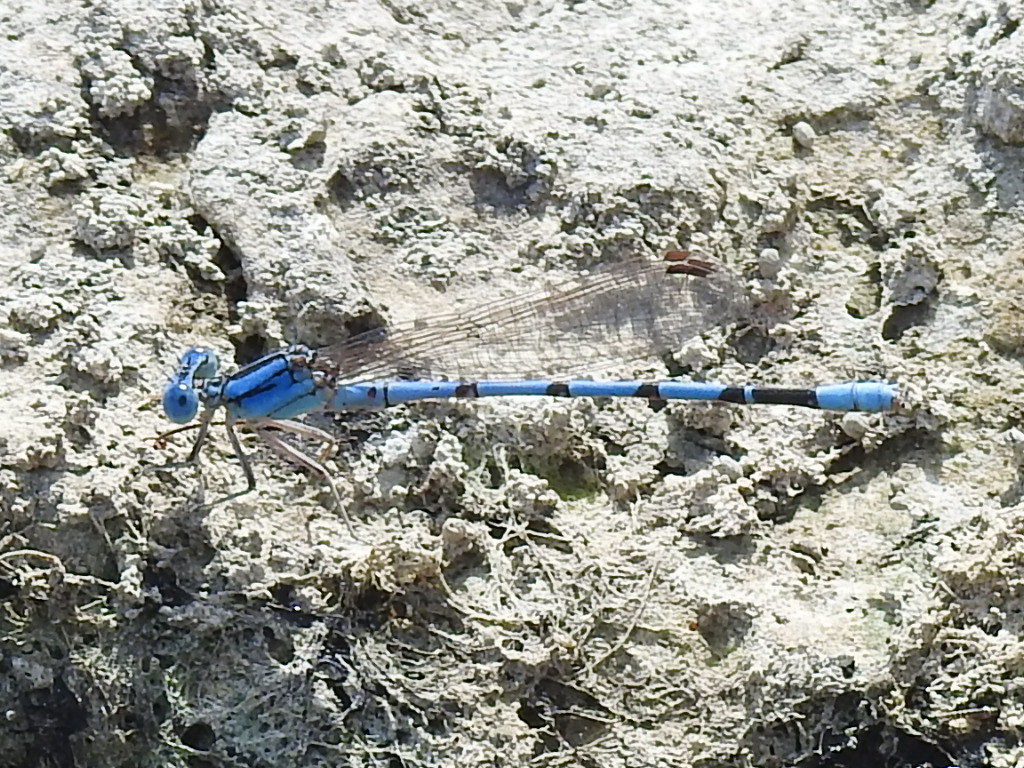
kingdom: Animalia
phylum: Arthropoda
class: Insecta
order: Odonata
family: Coenagrionidae
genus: Argia
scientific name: Argia nahuana
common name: Aztec dancer
